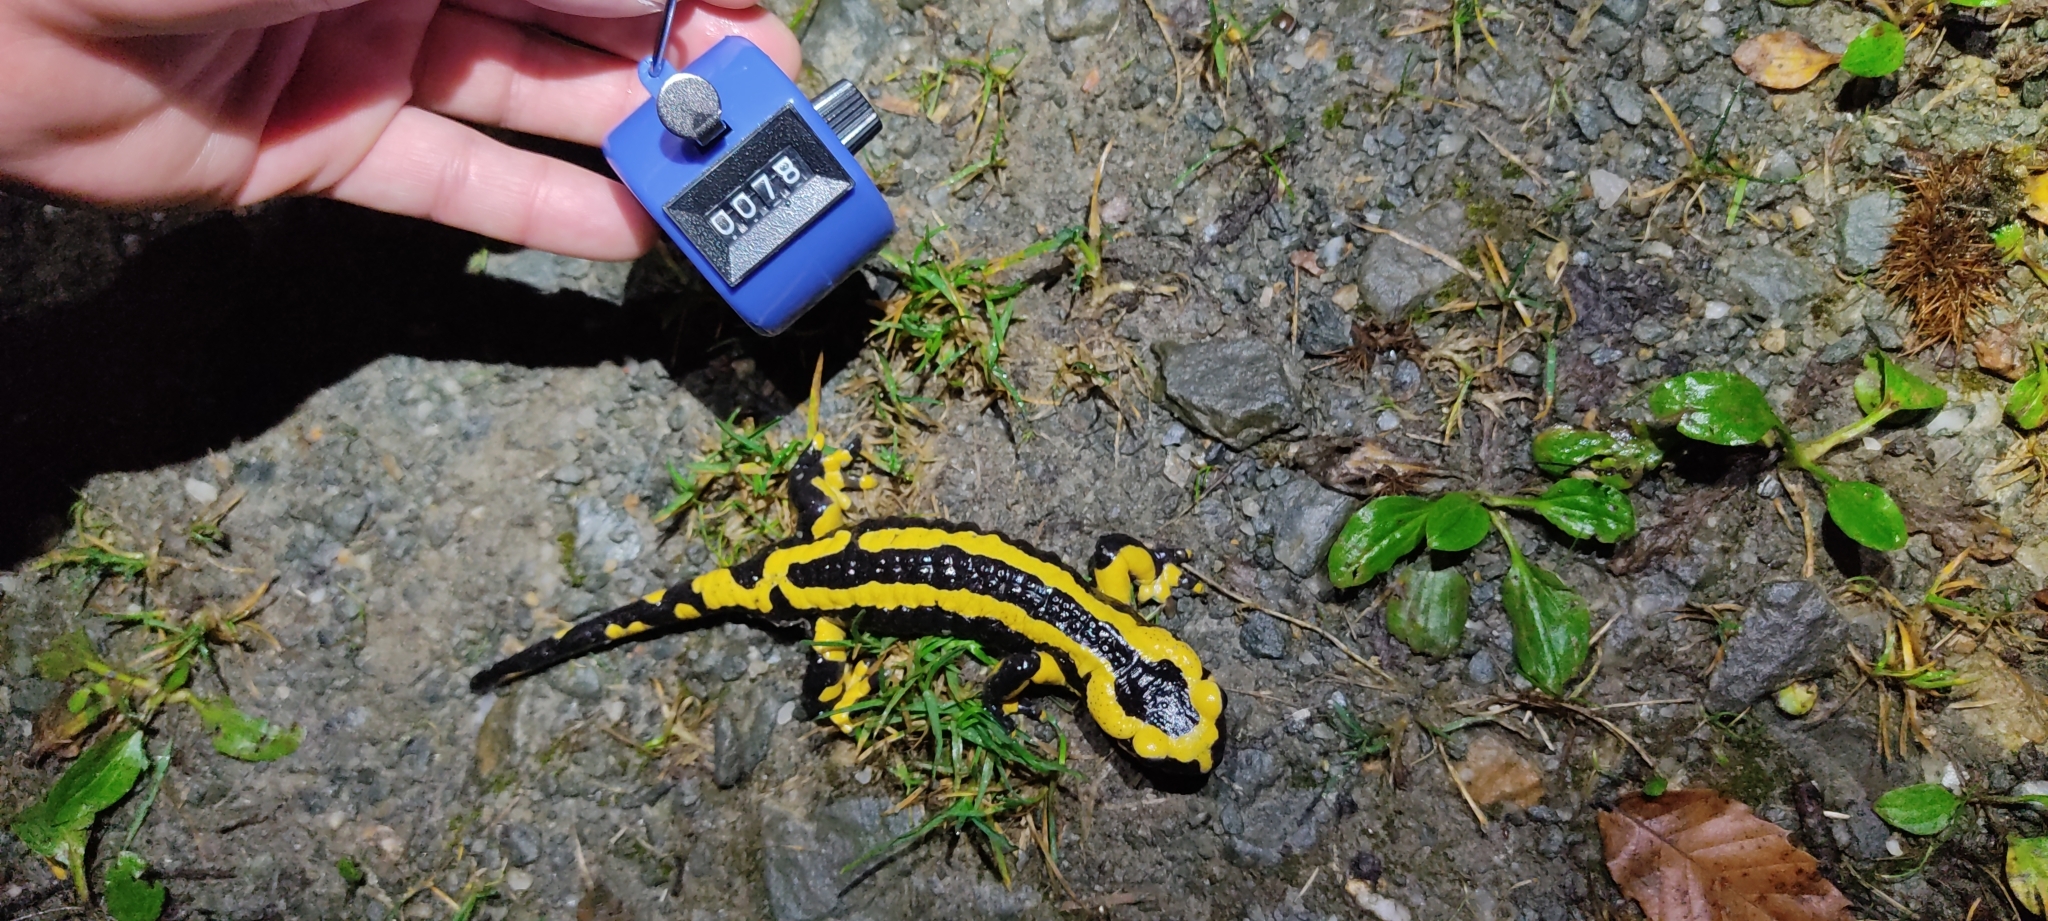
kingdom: Animalia
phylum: Chordata
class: Amphibia
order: Caudata
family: Salamandridae
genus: Salamandra
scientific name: Salamandra salamandra
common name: Fire salamander
